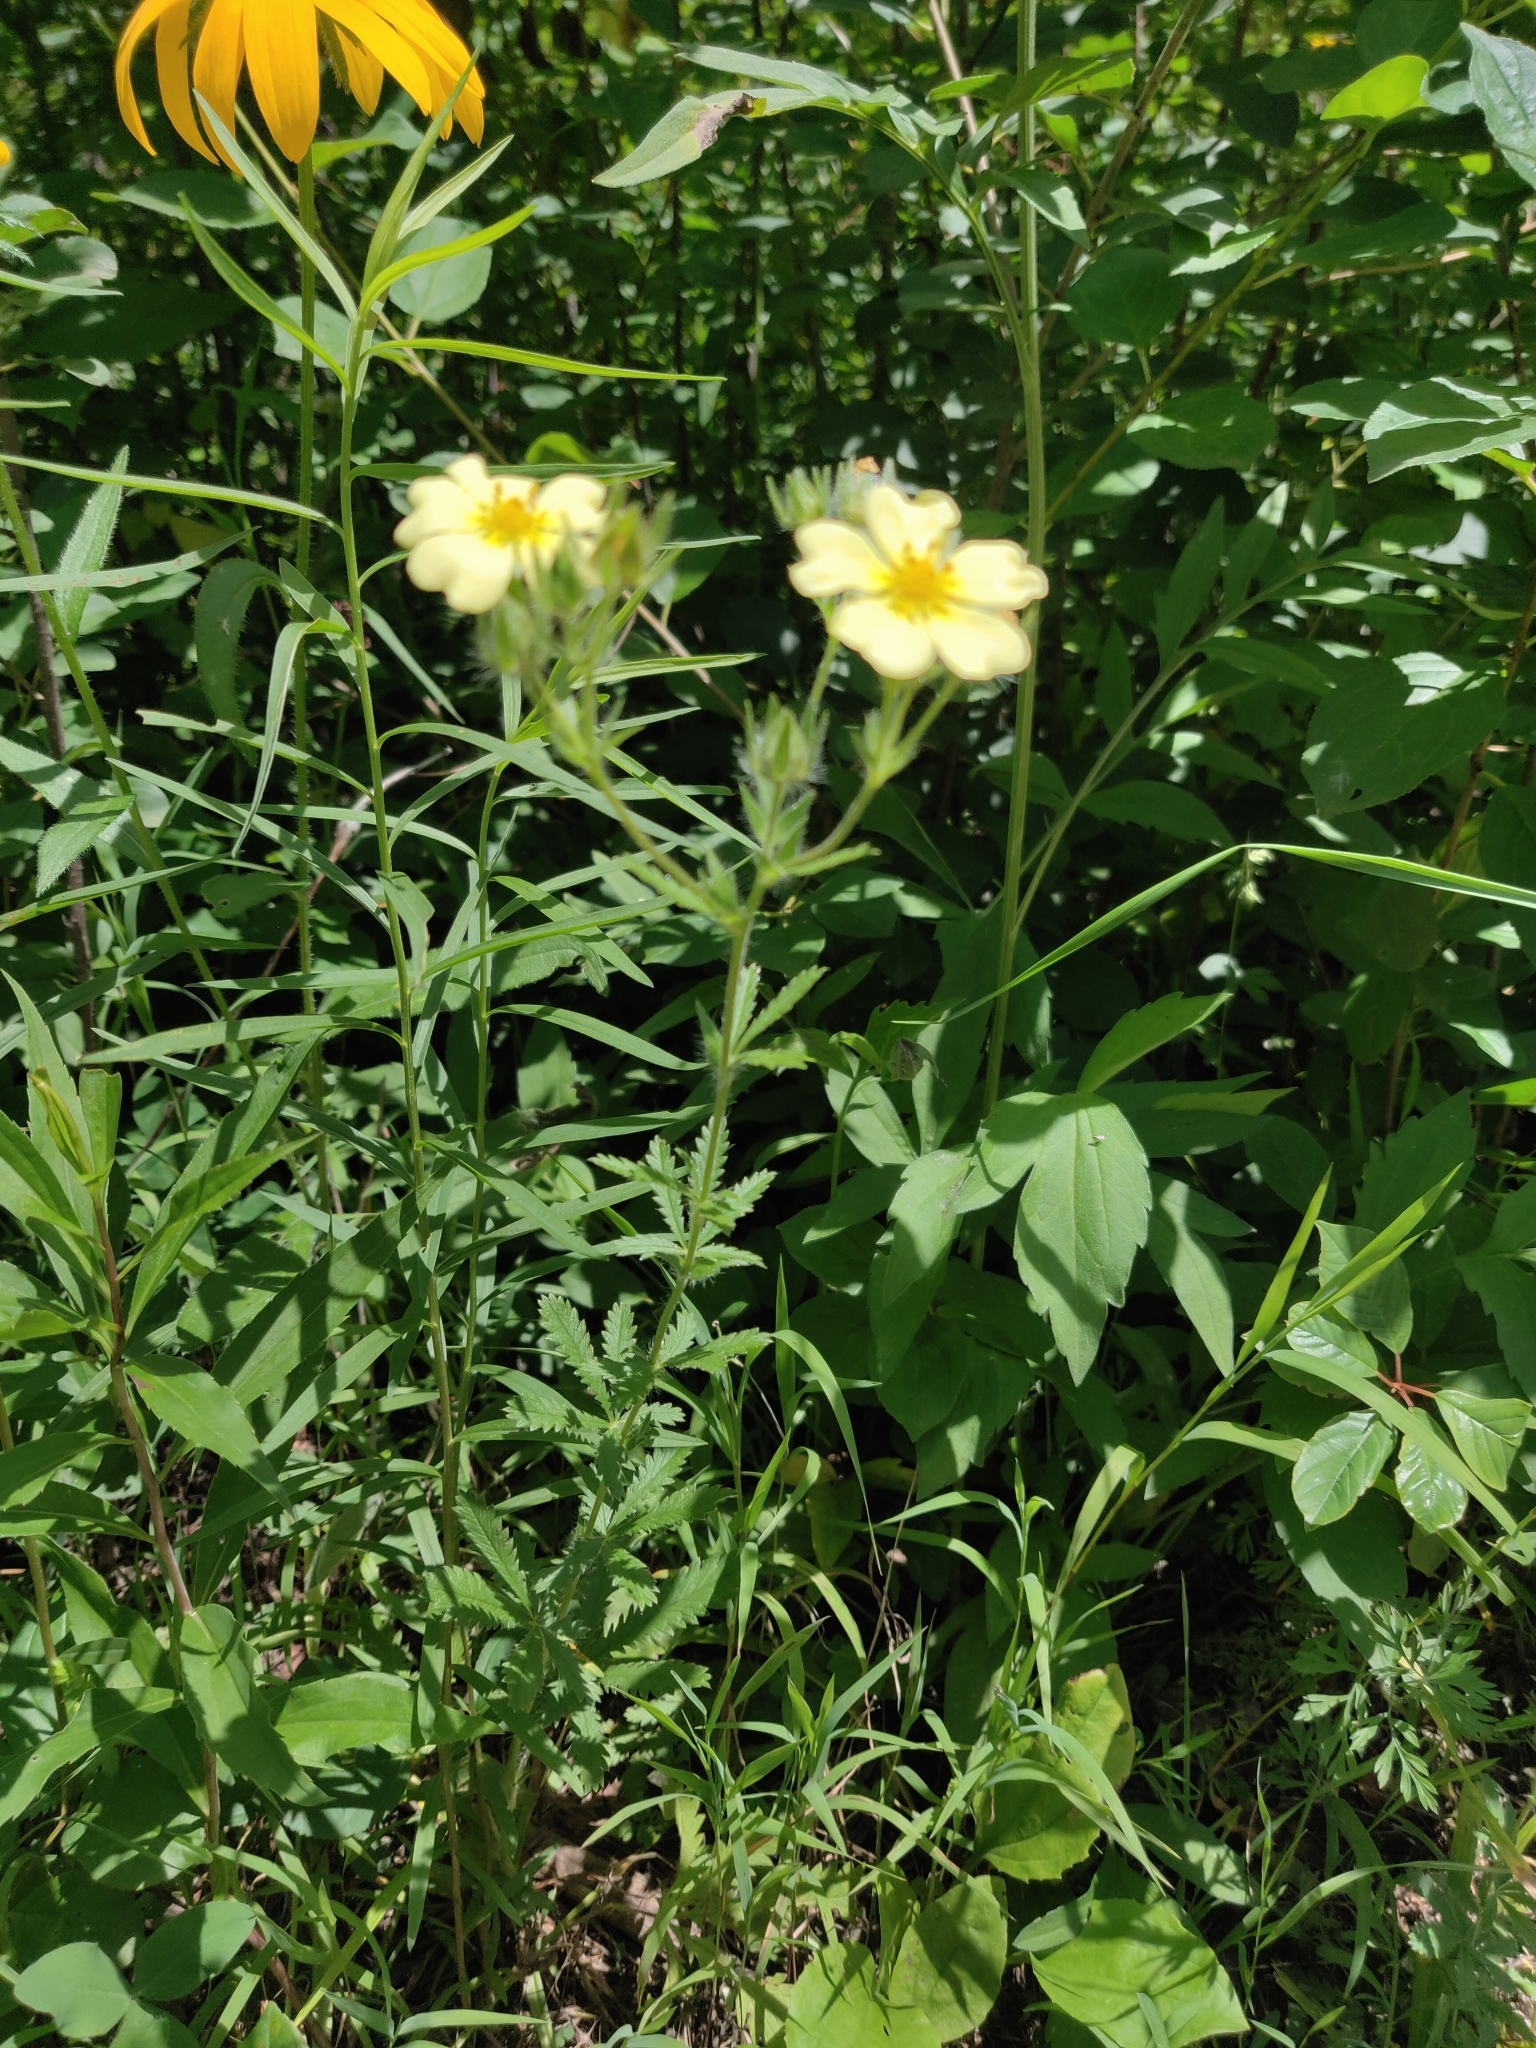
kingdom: Plantae
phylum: Tracheophyta
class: Magnoliopsida
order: Rosales
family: Rosaceae
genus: Potentilla
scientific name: Potentilla recta
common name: Sulphur cinquefoil
